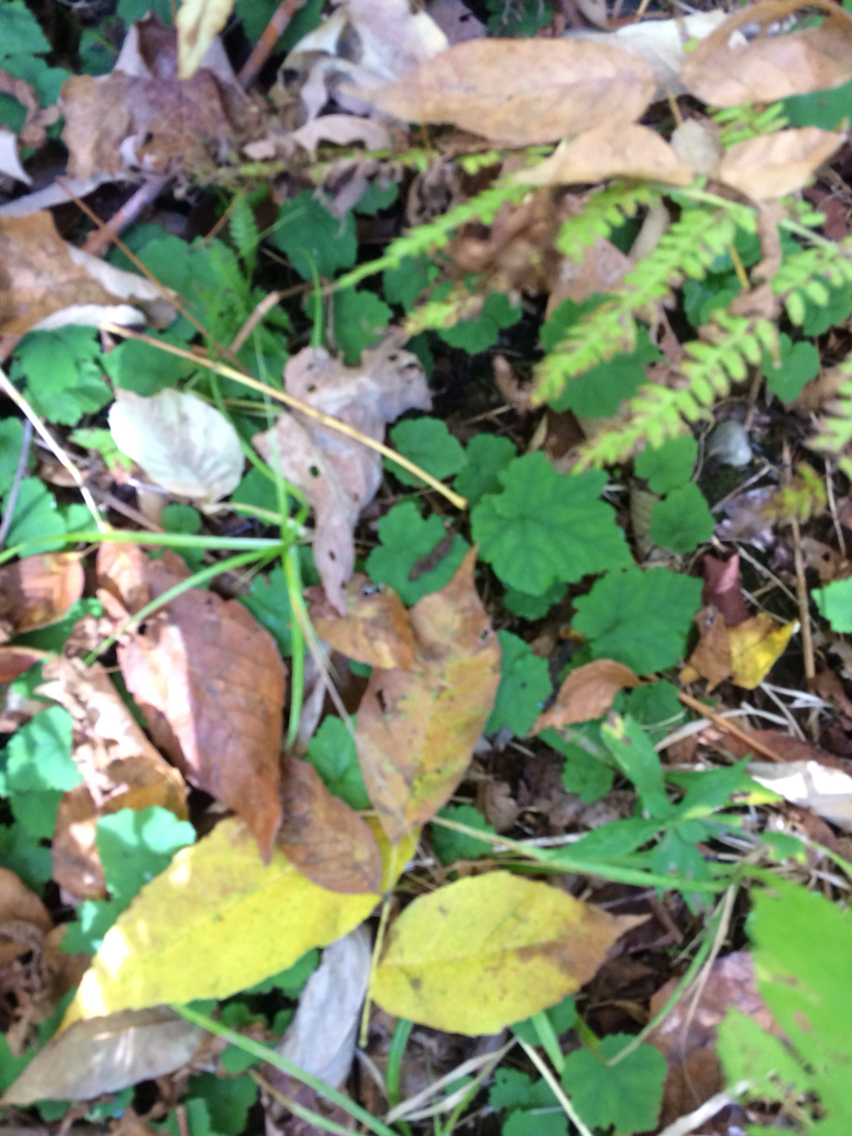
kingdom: Plantae
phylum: Tracheophyta
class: Magnoliopsida
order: Saxifragales
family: Saxifragaceae
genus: Tiarella
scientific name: Tiarella stolonifera
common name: Stoloniferous foamflower
